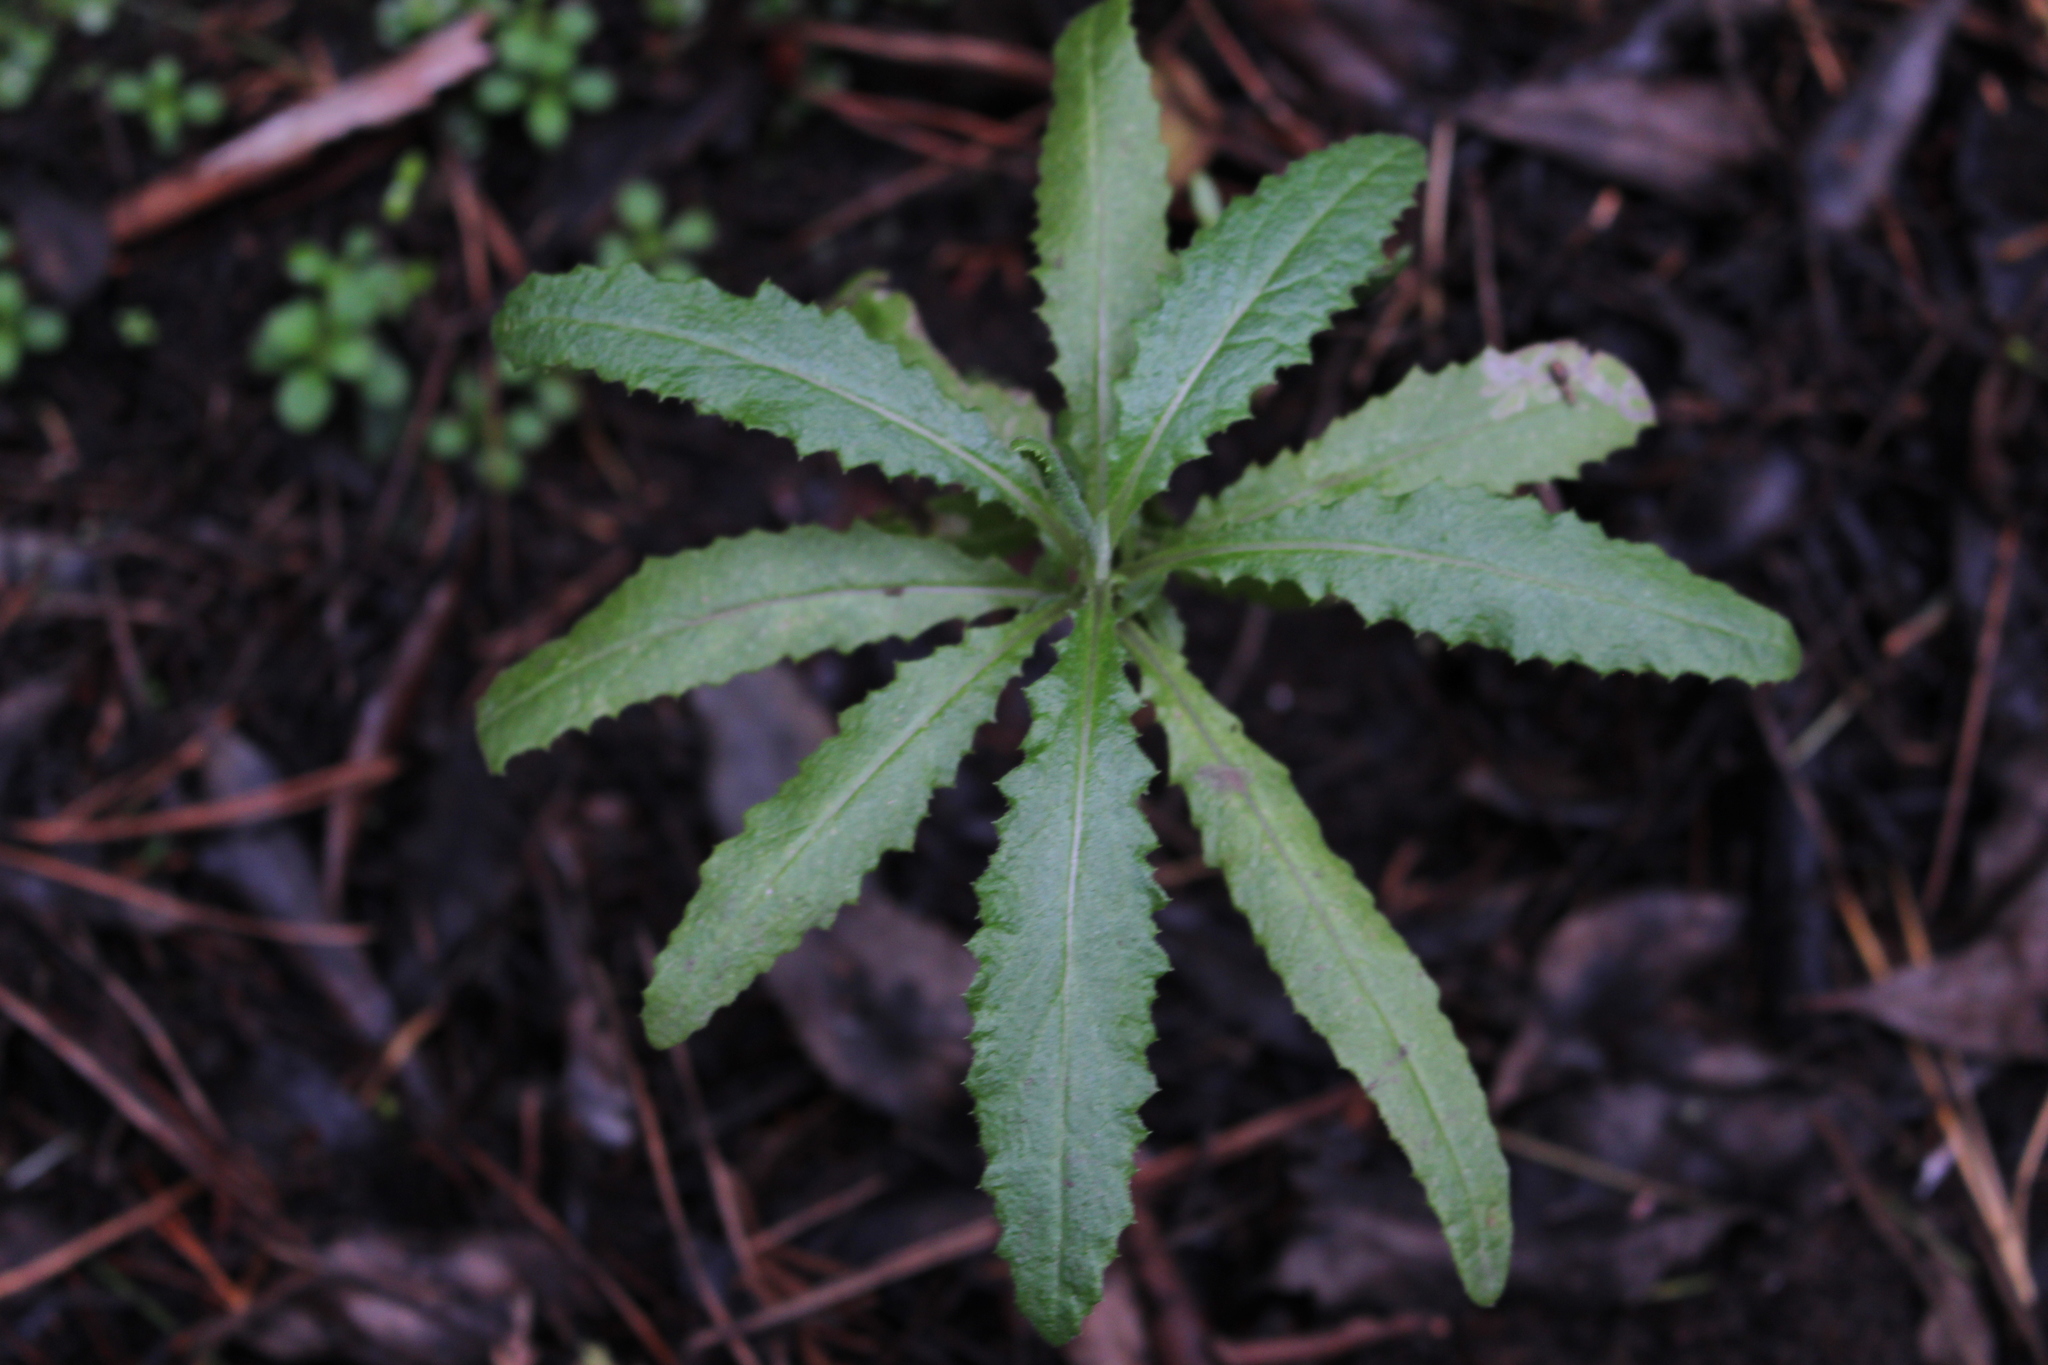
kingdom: Plantae
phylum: Tracheophyta
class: Magnoliopsida
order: Asterales
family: Asteraceae
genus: Senecio
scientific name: Senecio minimus
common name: Toothed fireweed
